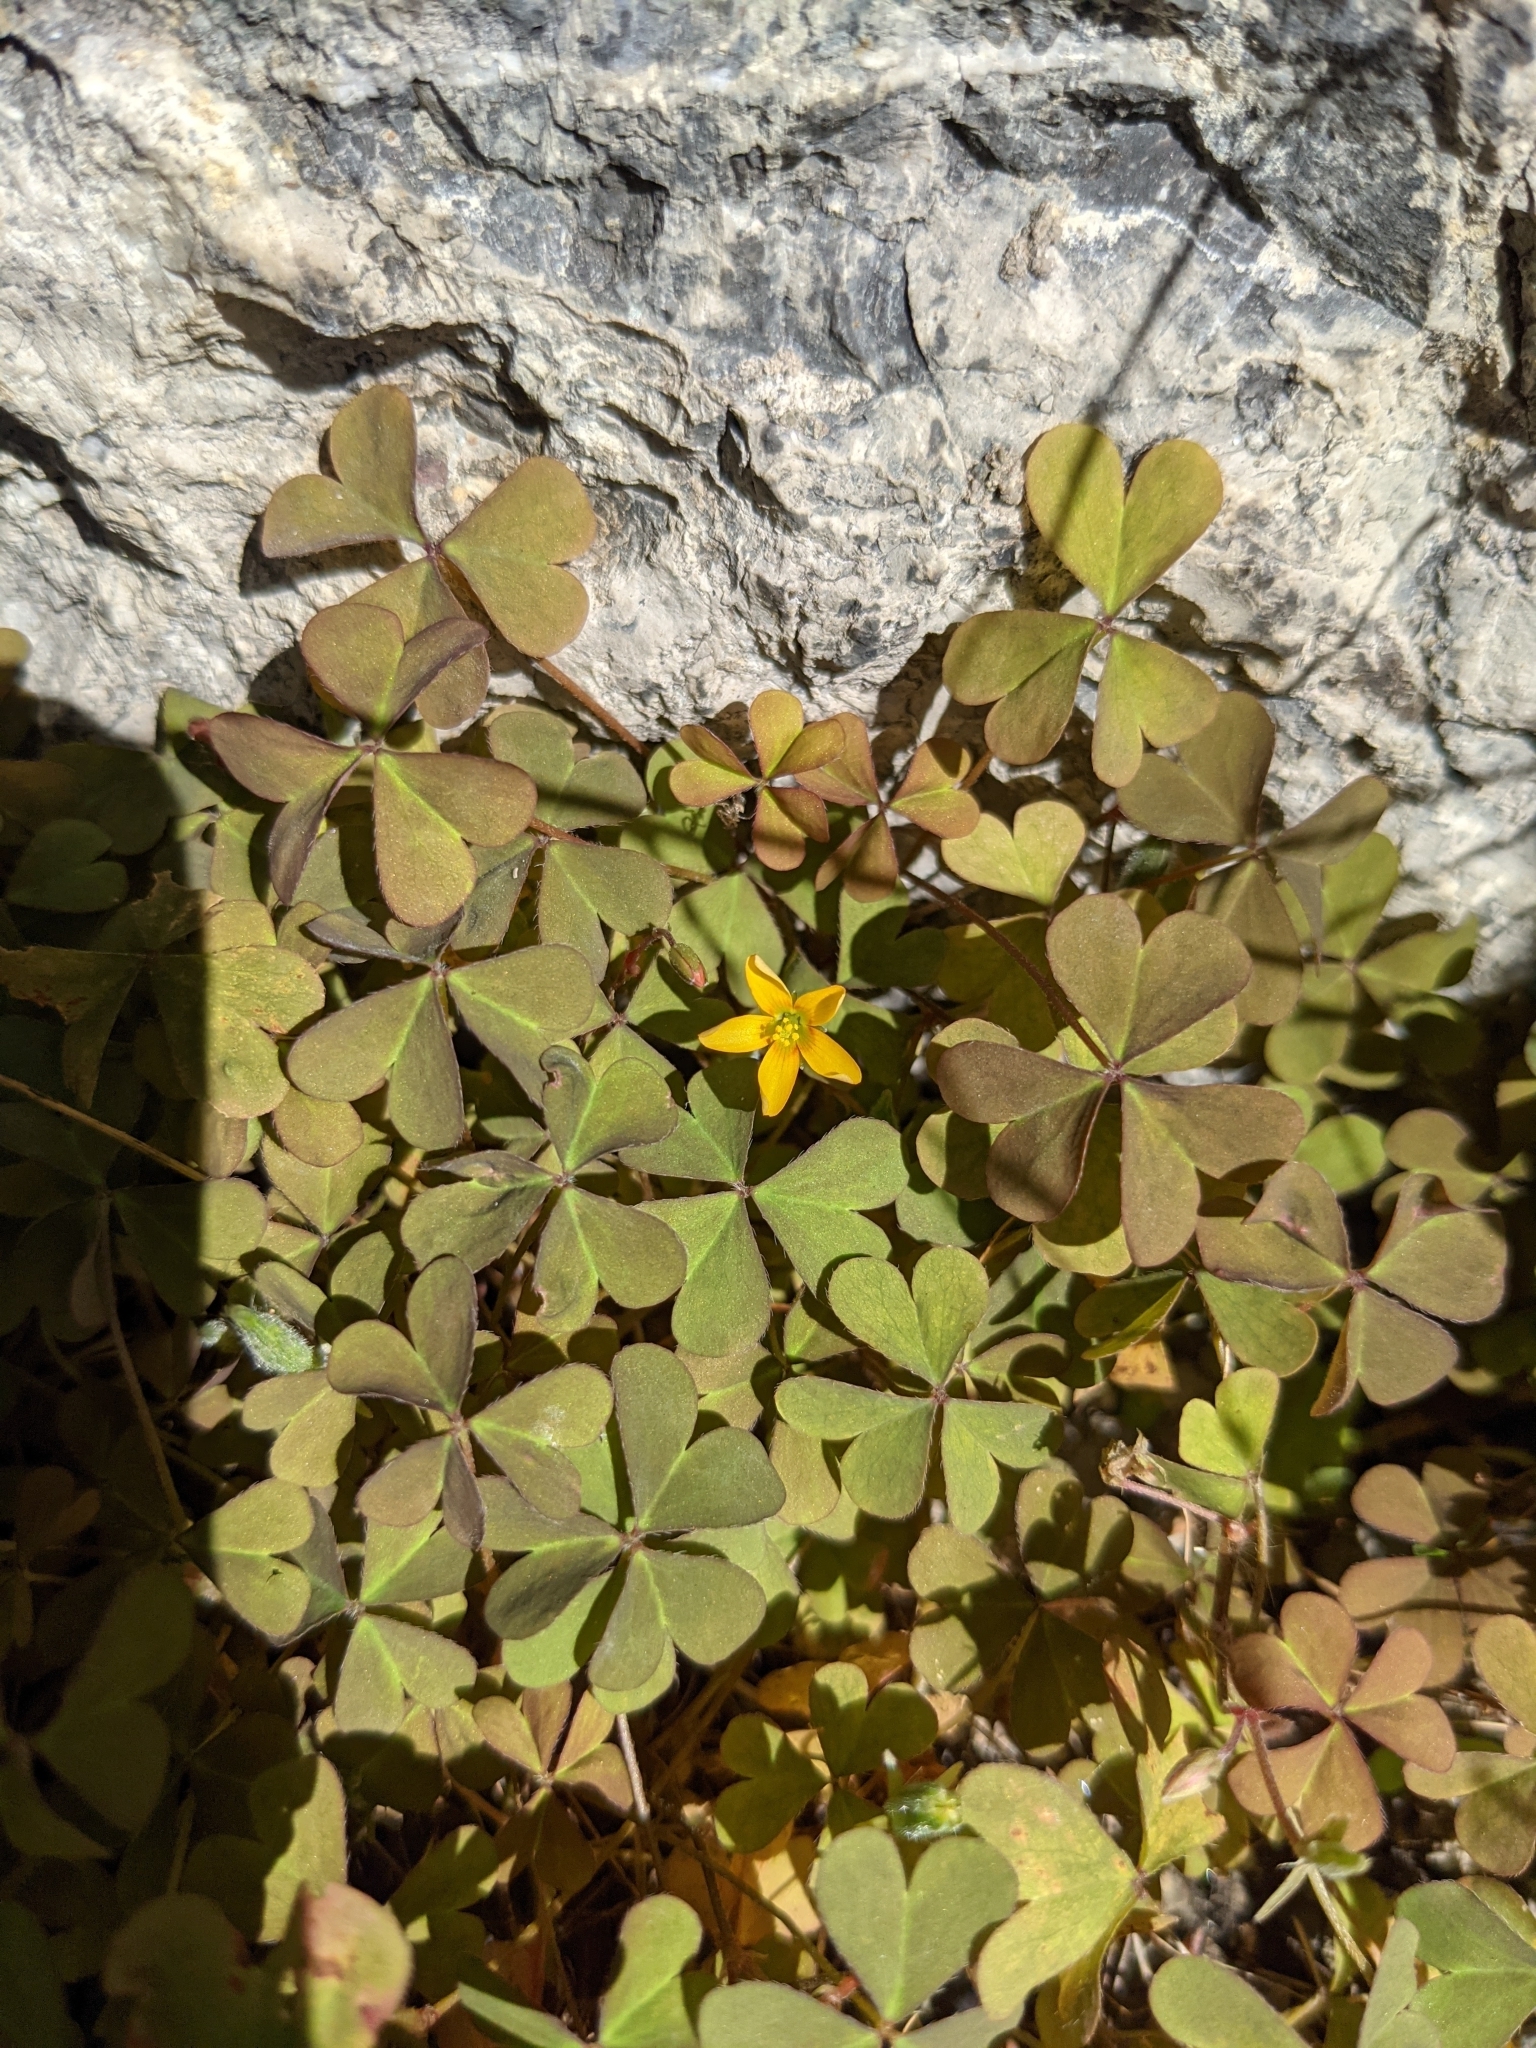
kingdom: Plantae
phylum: Tracheophyta
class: Magnoliopsida
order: Oxalidales
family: Oxalidaceae
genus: Oxalis
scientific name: Oxalis corniculata
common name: Procumbent yellow-sorrel
